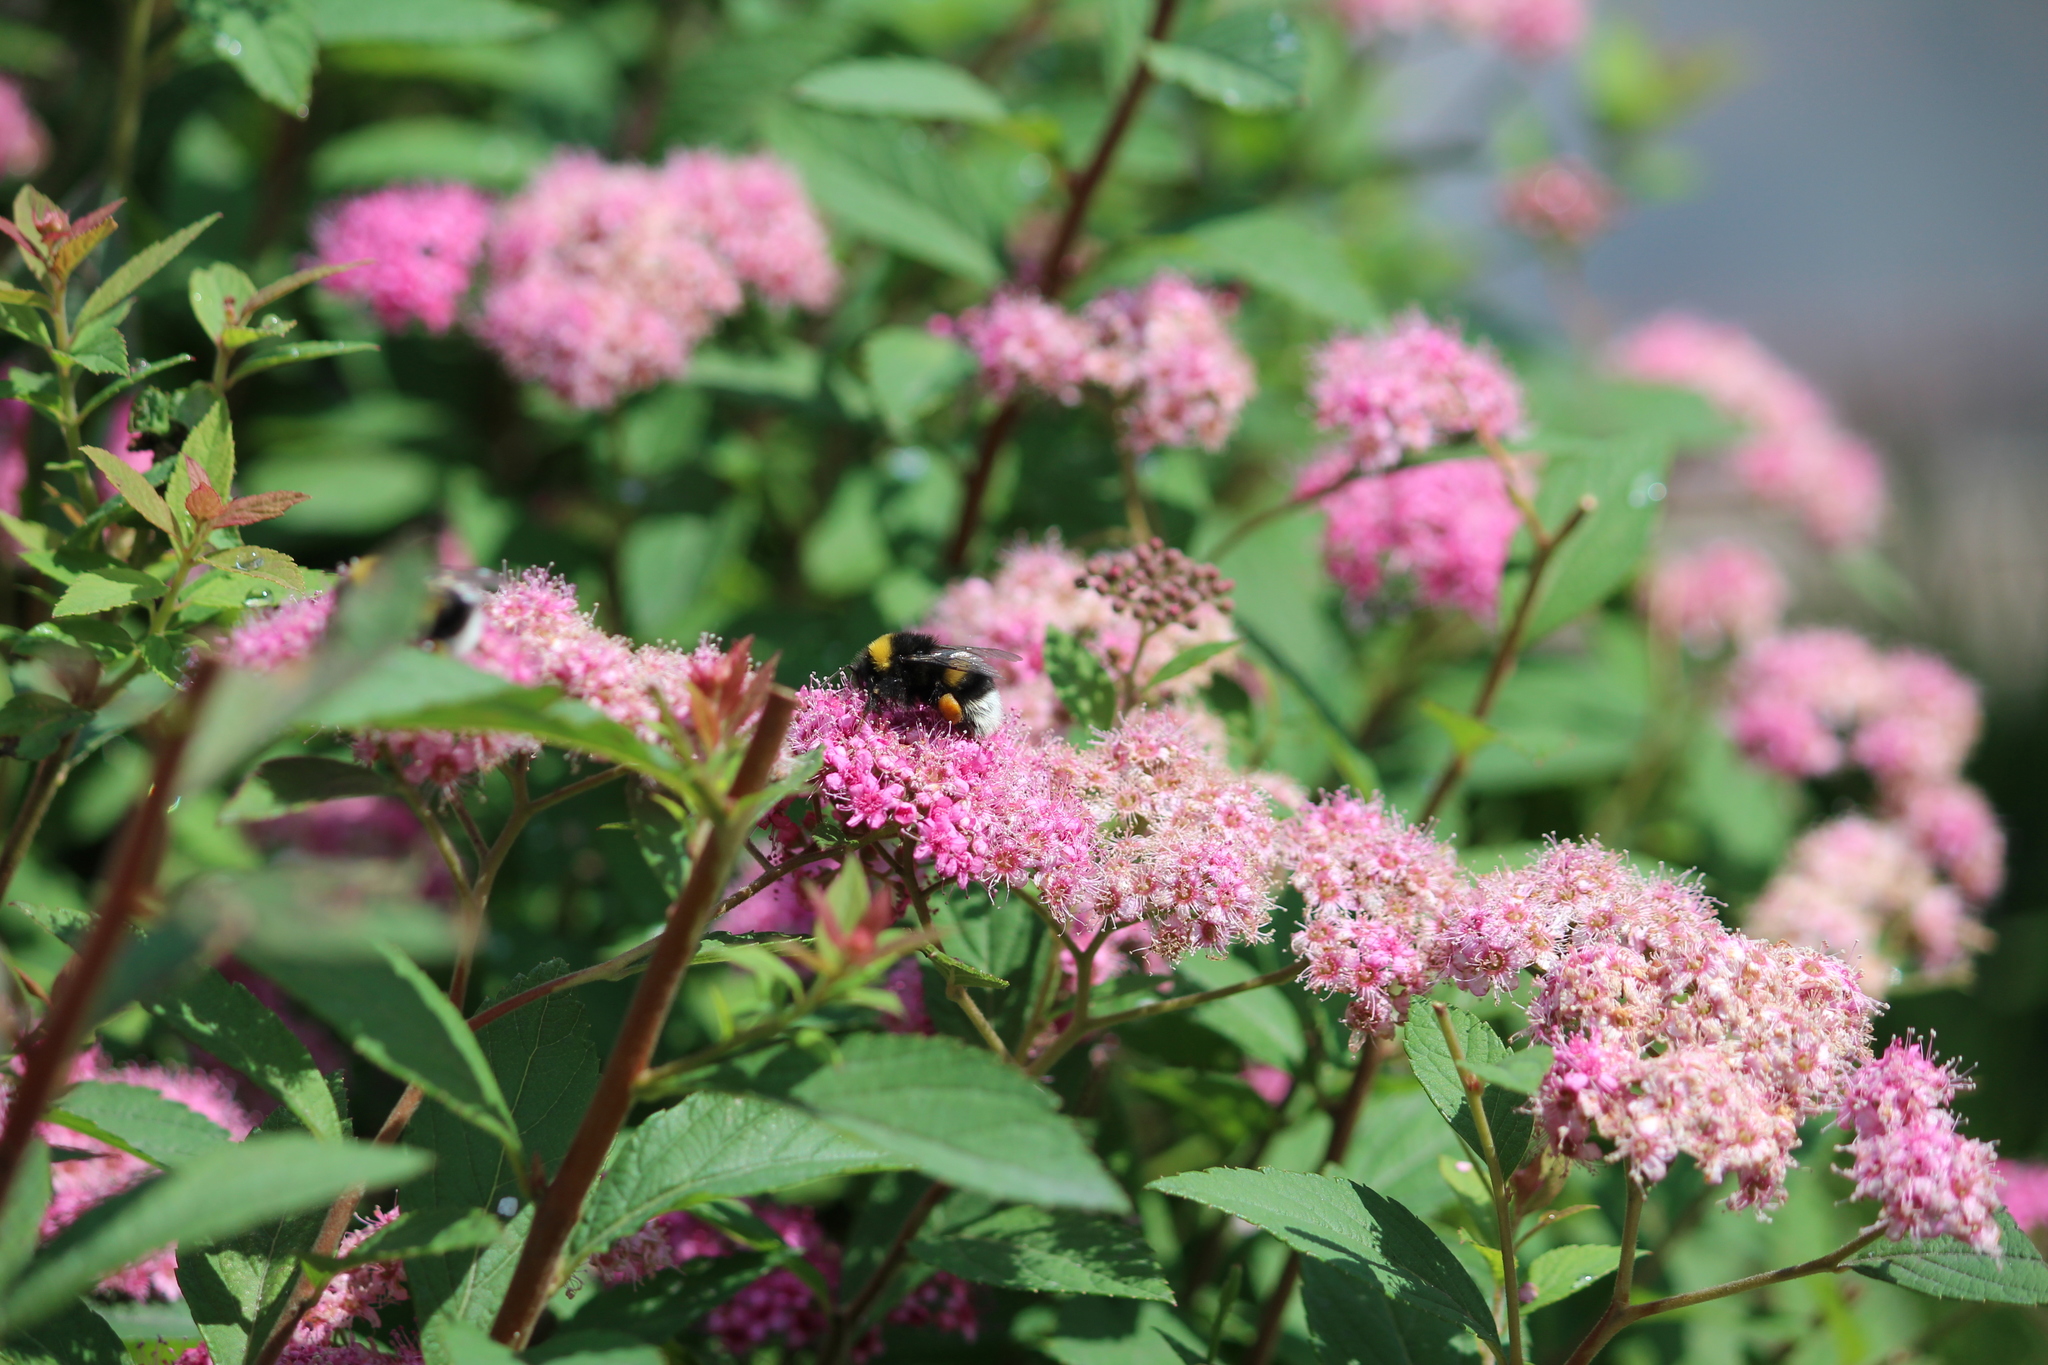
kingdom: Animalia
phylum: Arthropoda
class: Insecta
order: Hymenoptera
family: Apidae
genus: Bombus
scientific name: Bombus
